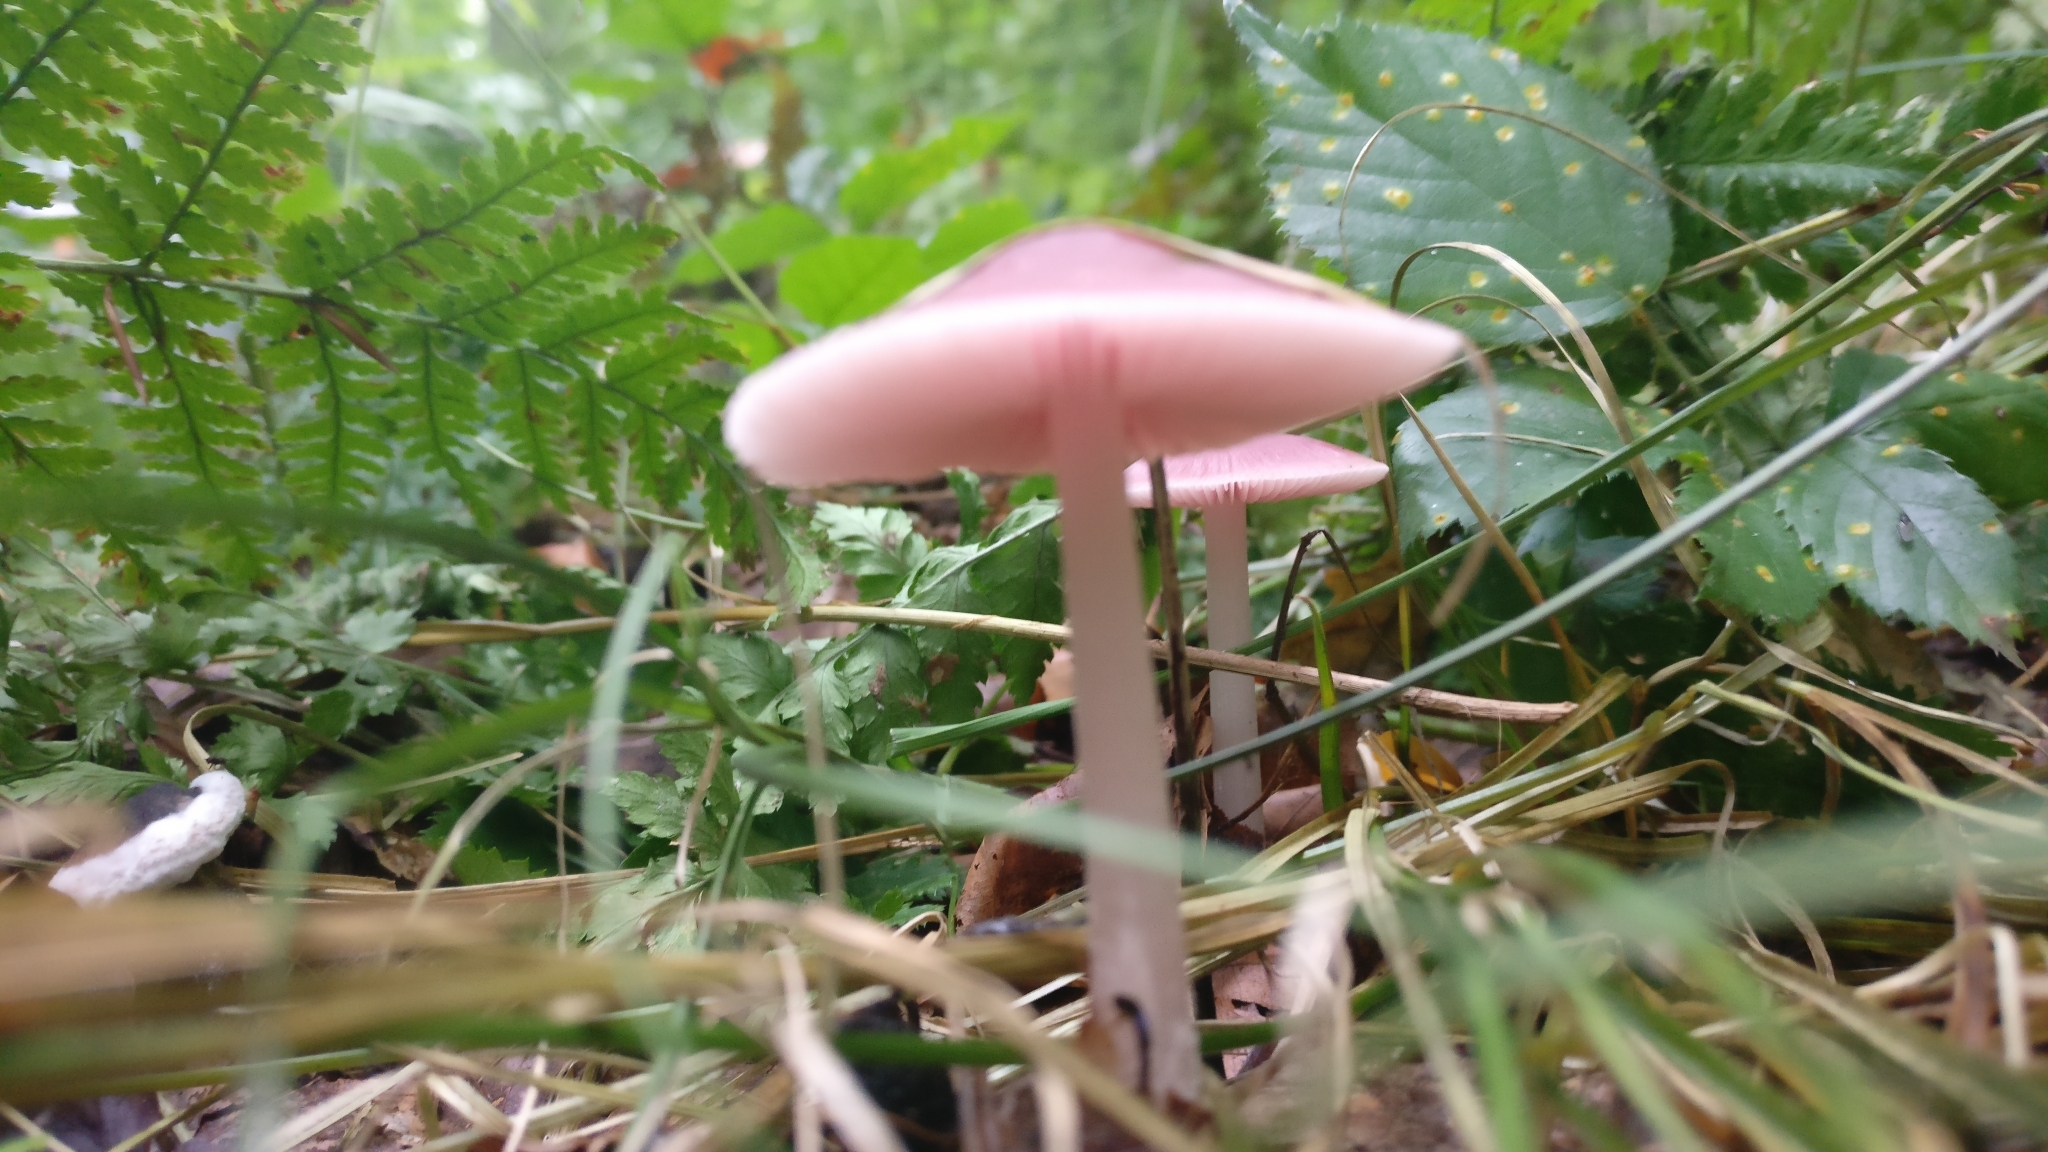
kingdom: Fungi
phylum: Basidiomycota
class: Agaricomycetes
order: Agaricales
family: Mycenaceae
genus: Mycena
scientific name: Mycena pura
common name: Lilac bonnet
